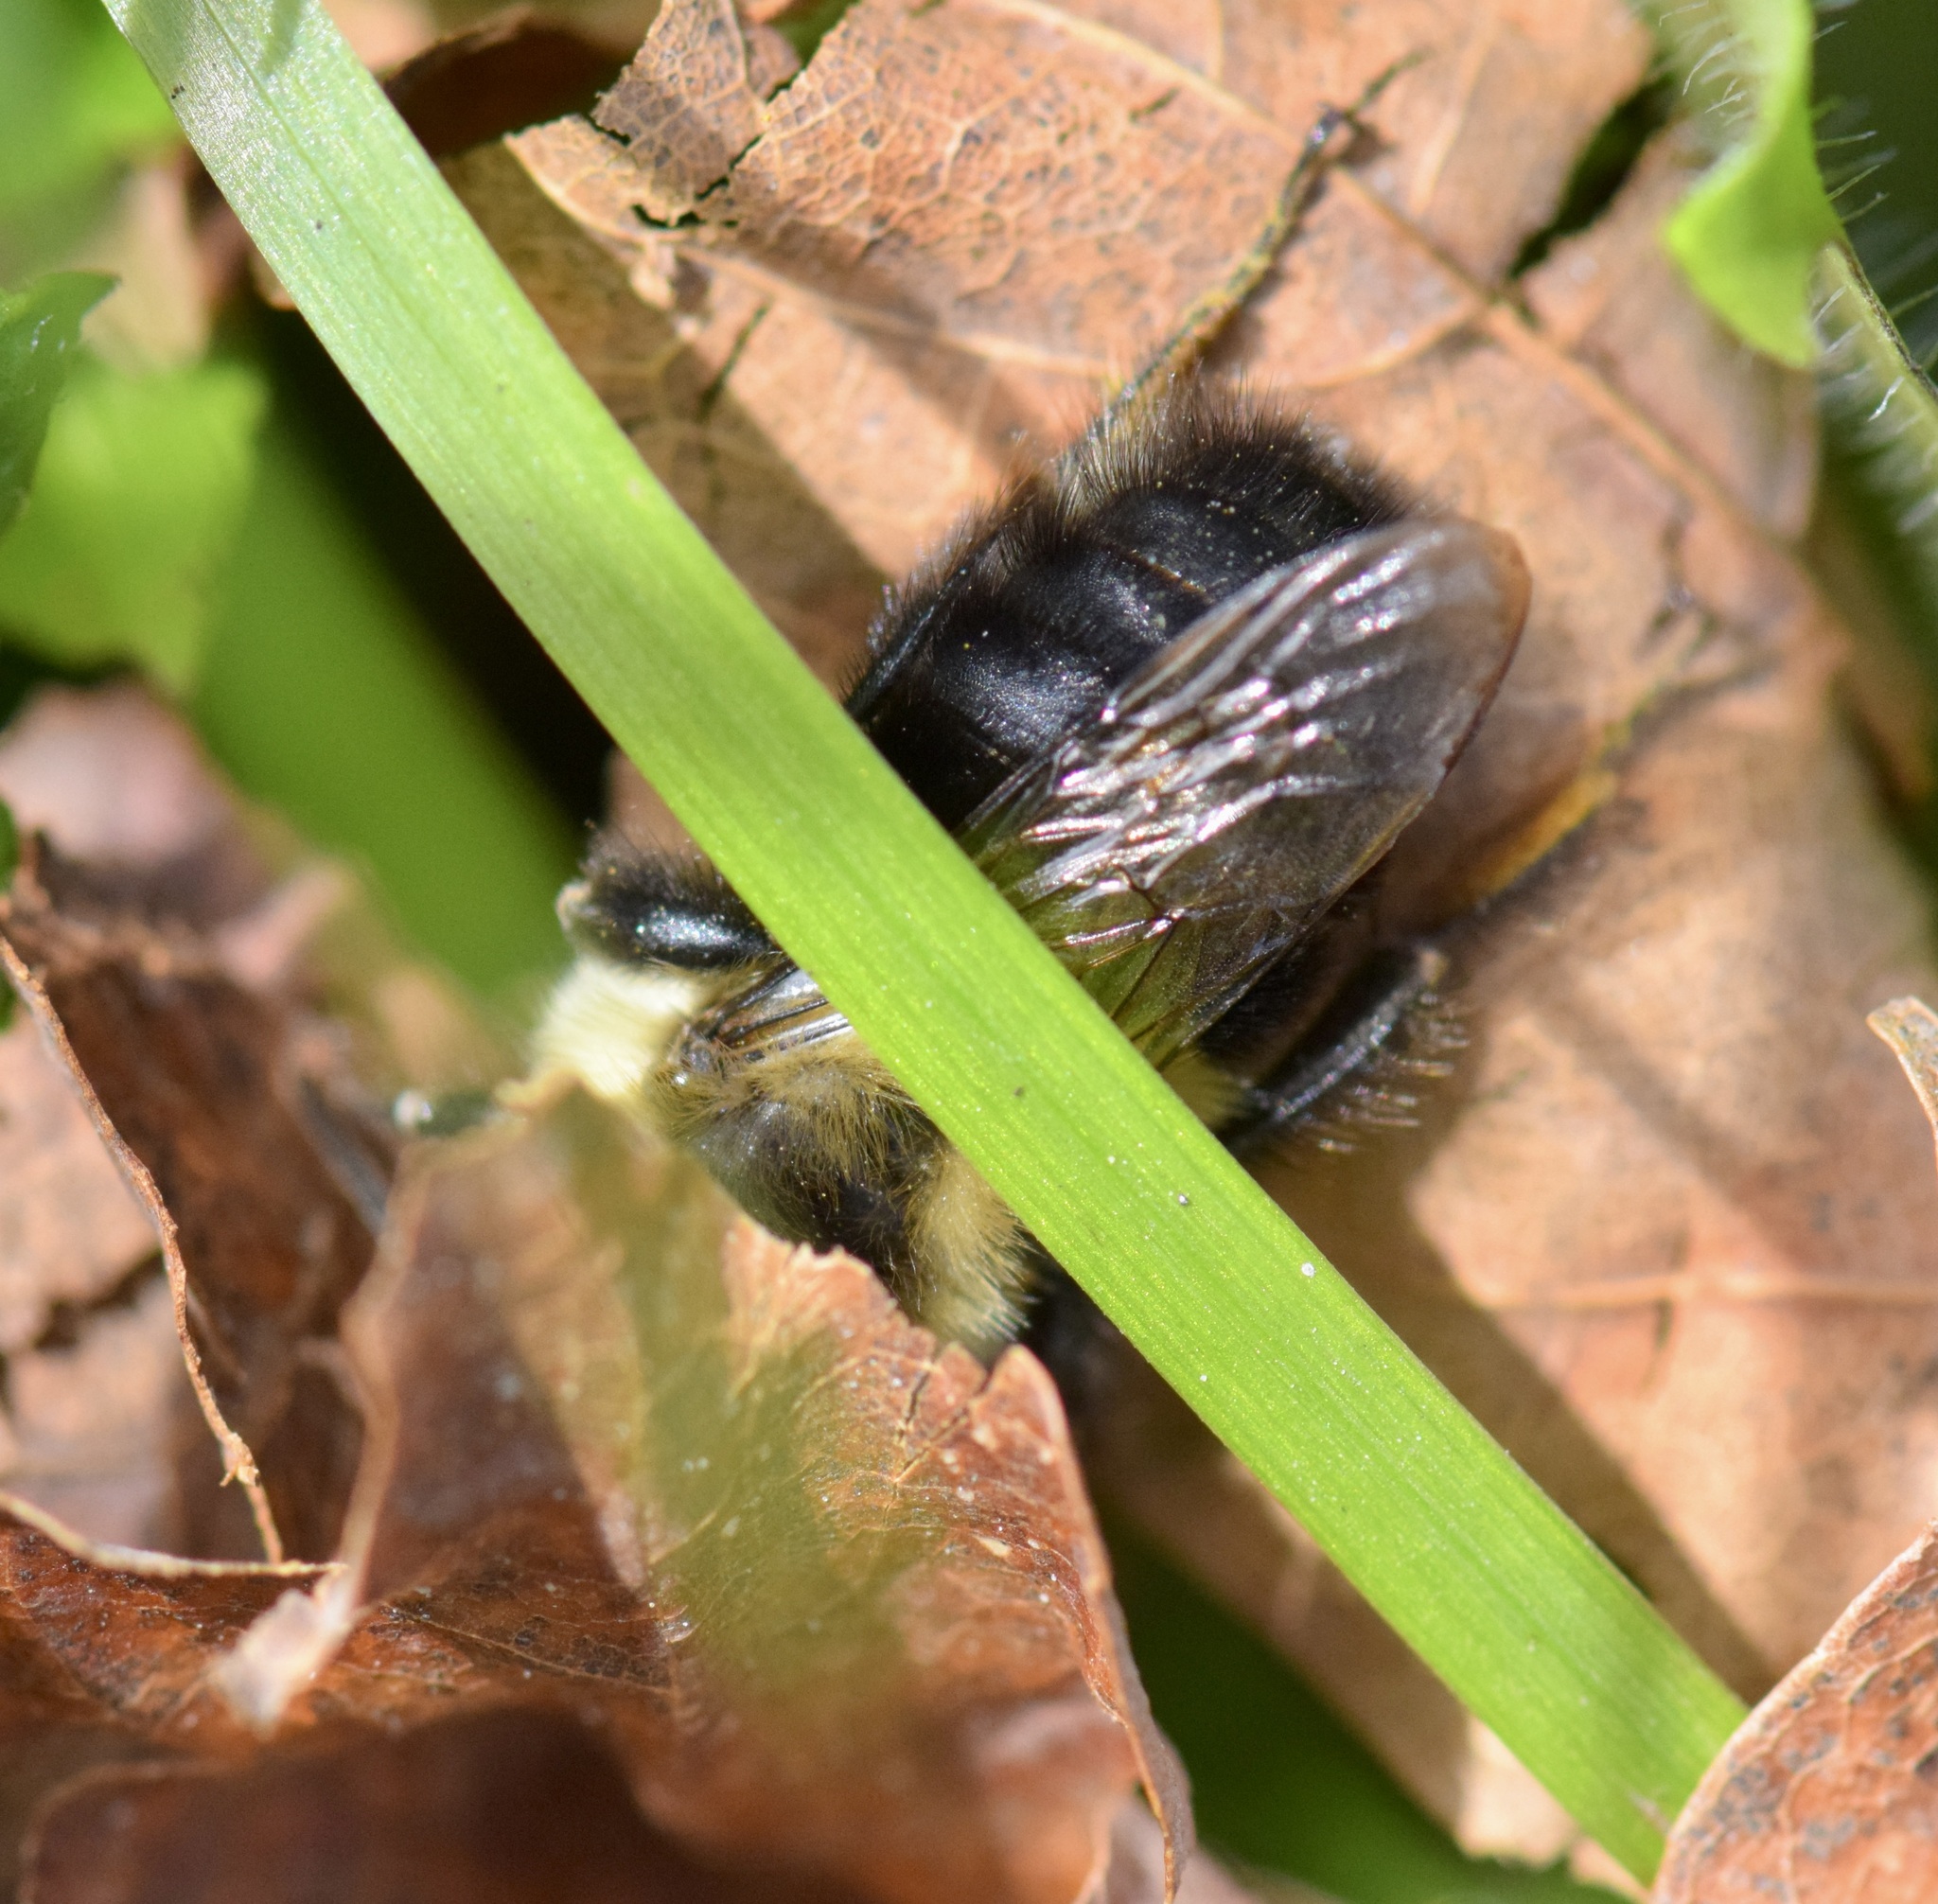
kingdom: Animalia
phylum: Arthropoda
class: Insecta
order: Hymenoptera
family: Apidae
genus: Bombus
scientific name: Bombus impatiens
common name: Common eastern bumble bee
